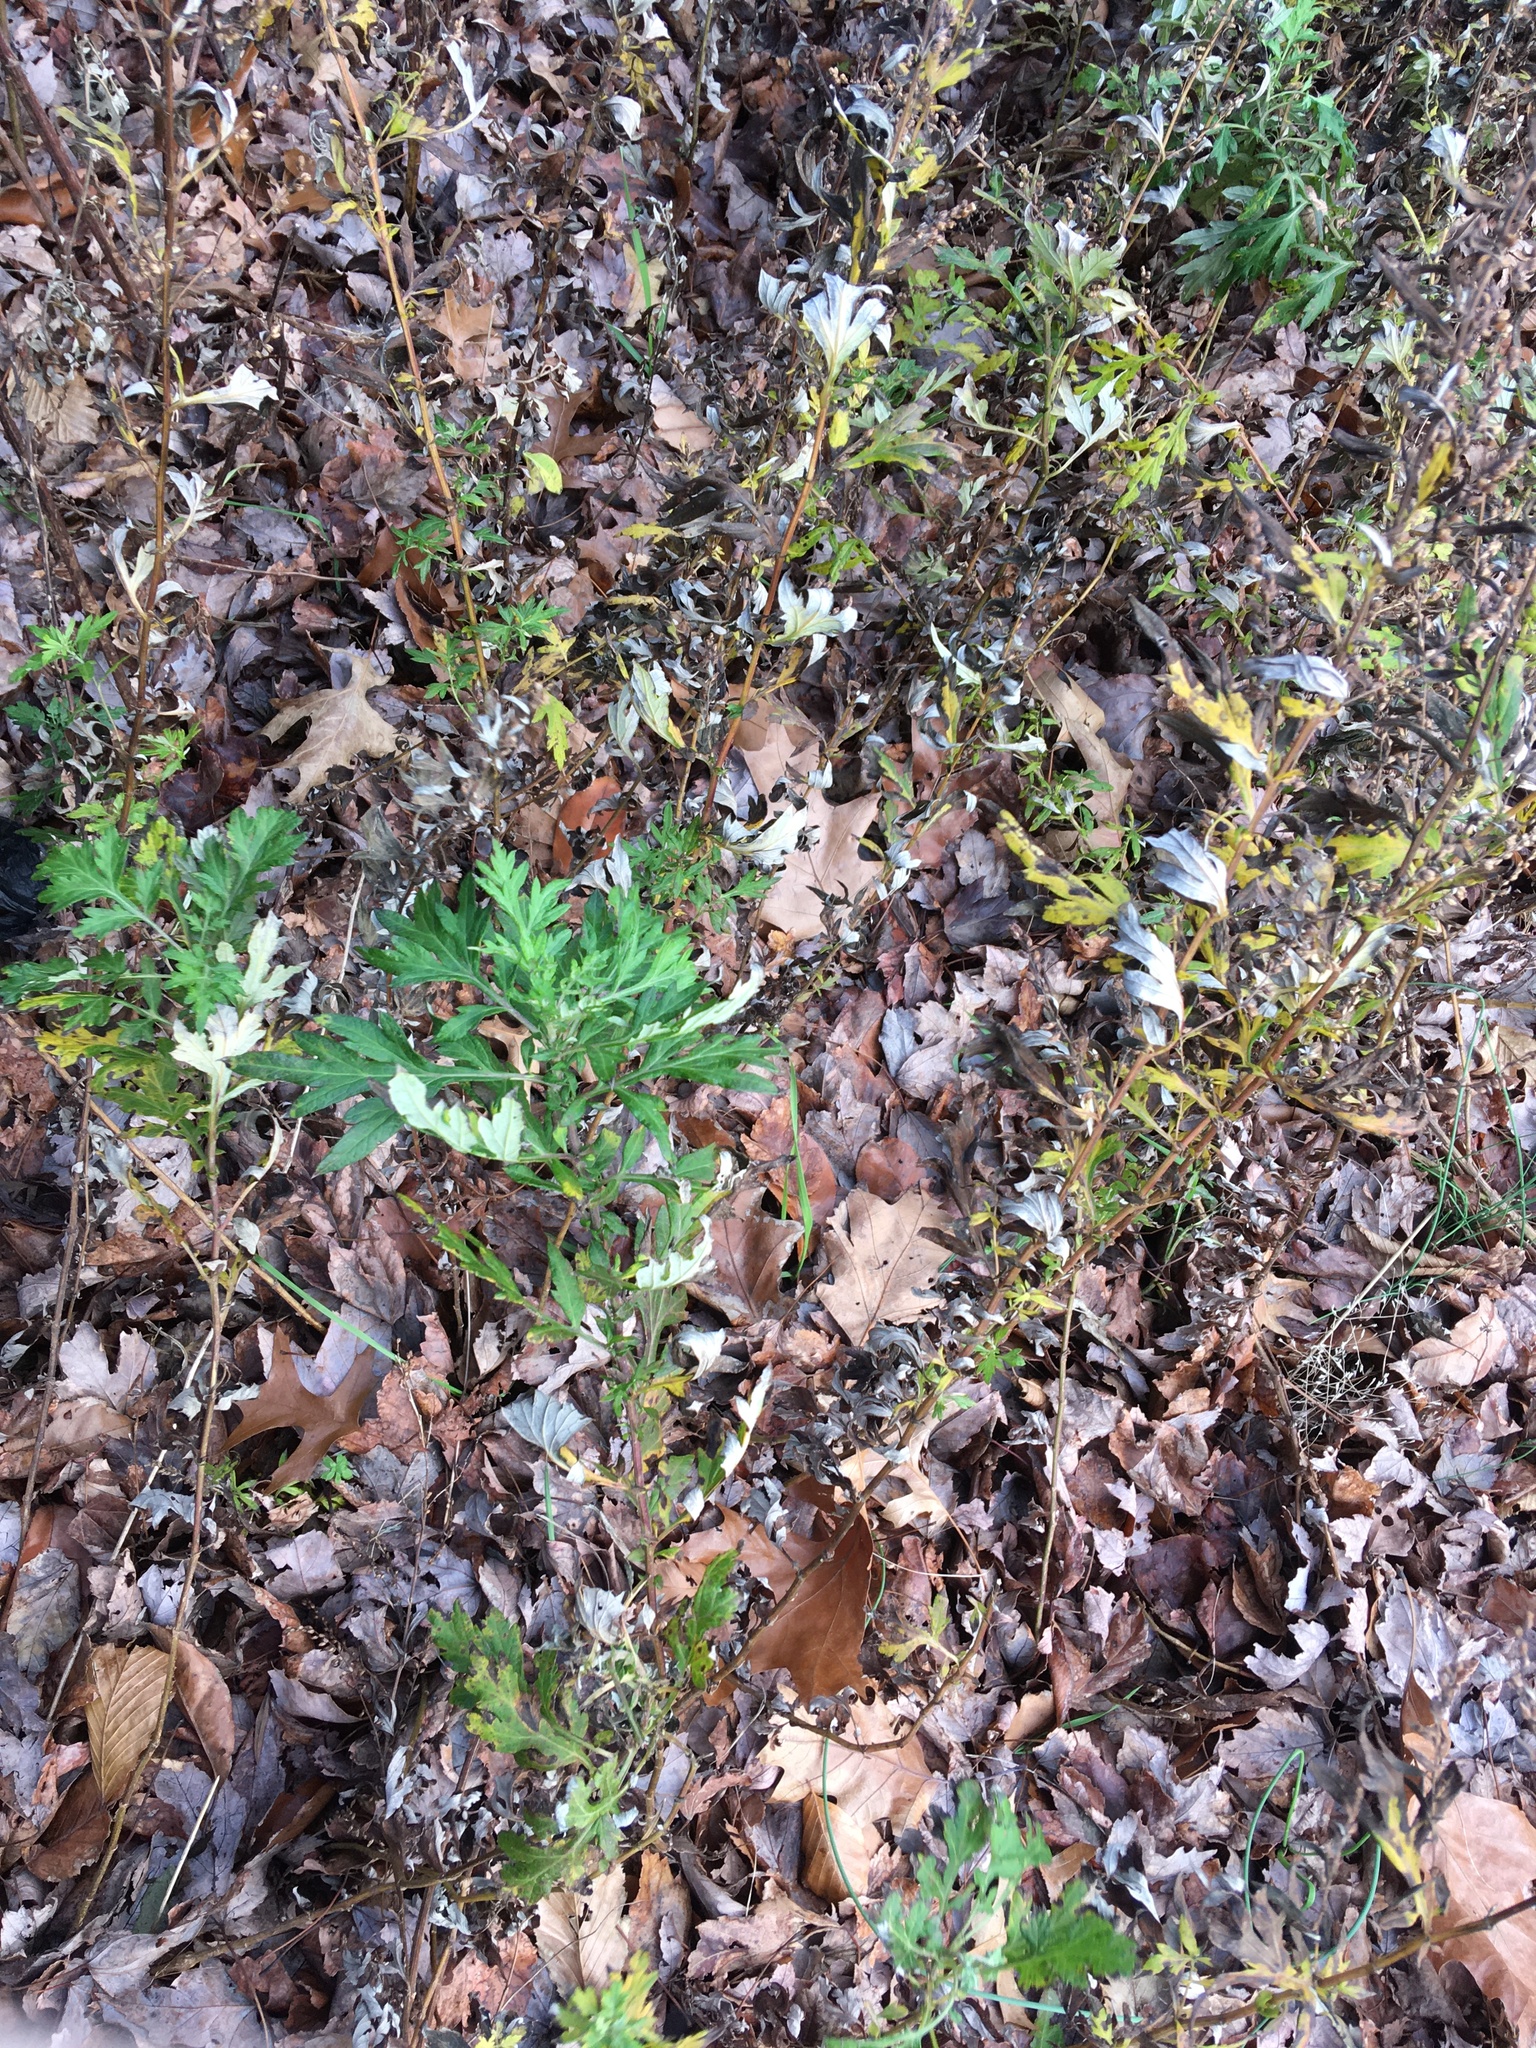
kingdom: Plantae
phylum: Tracheophyta
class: Magnoliopsida
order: Asterales
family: Asteraceae
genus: Artemisia
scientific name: Artemisia vulgaris
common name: Mugwort
